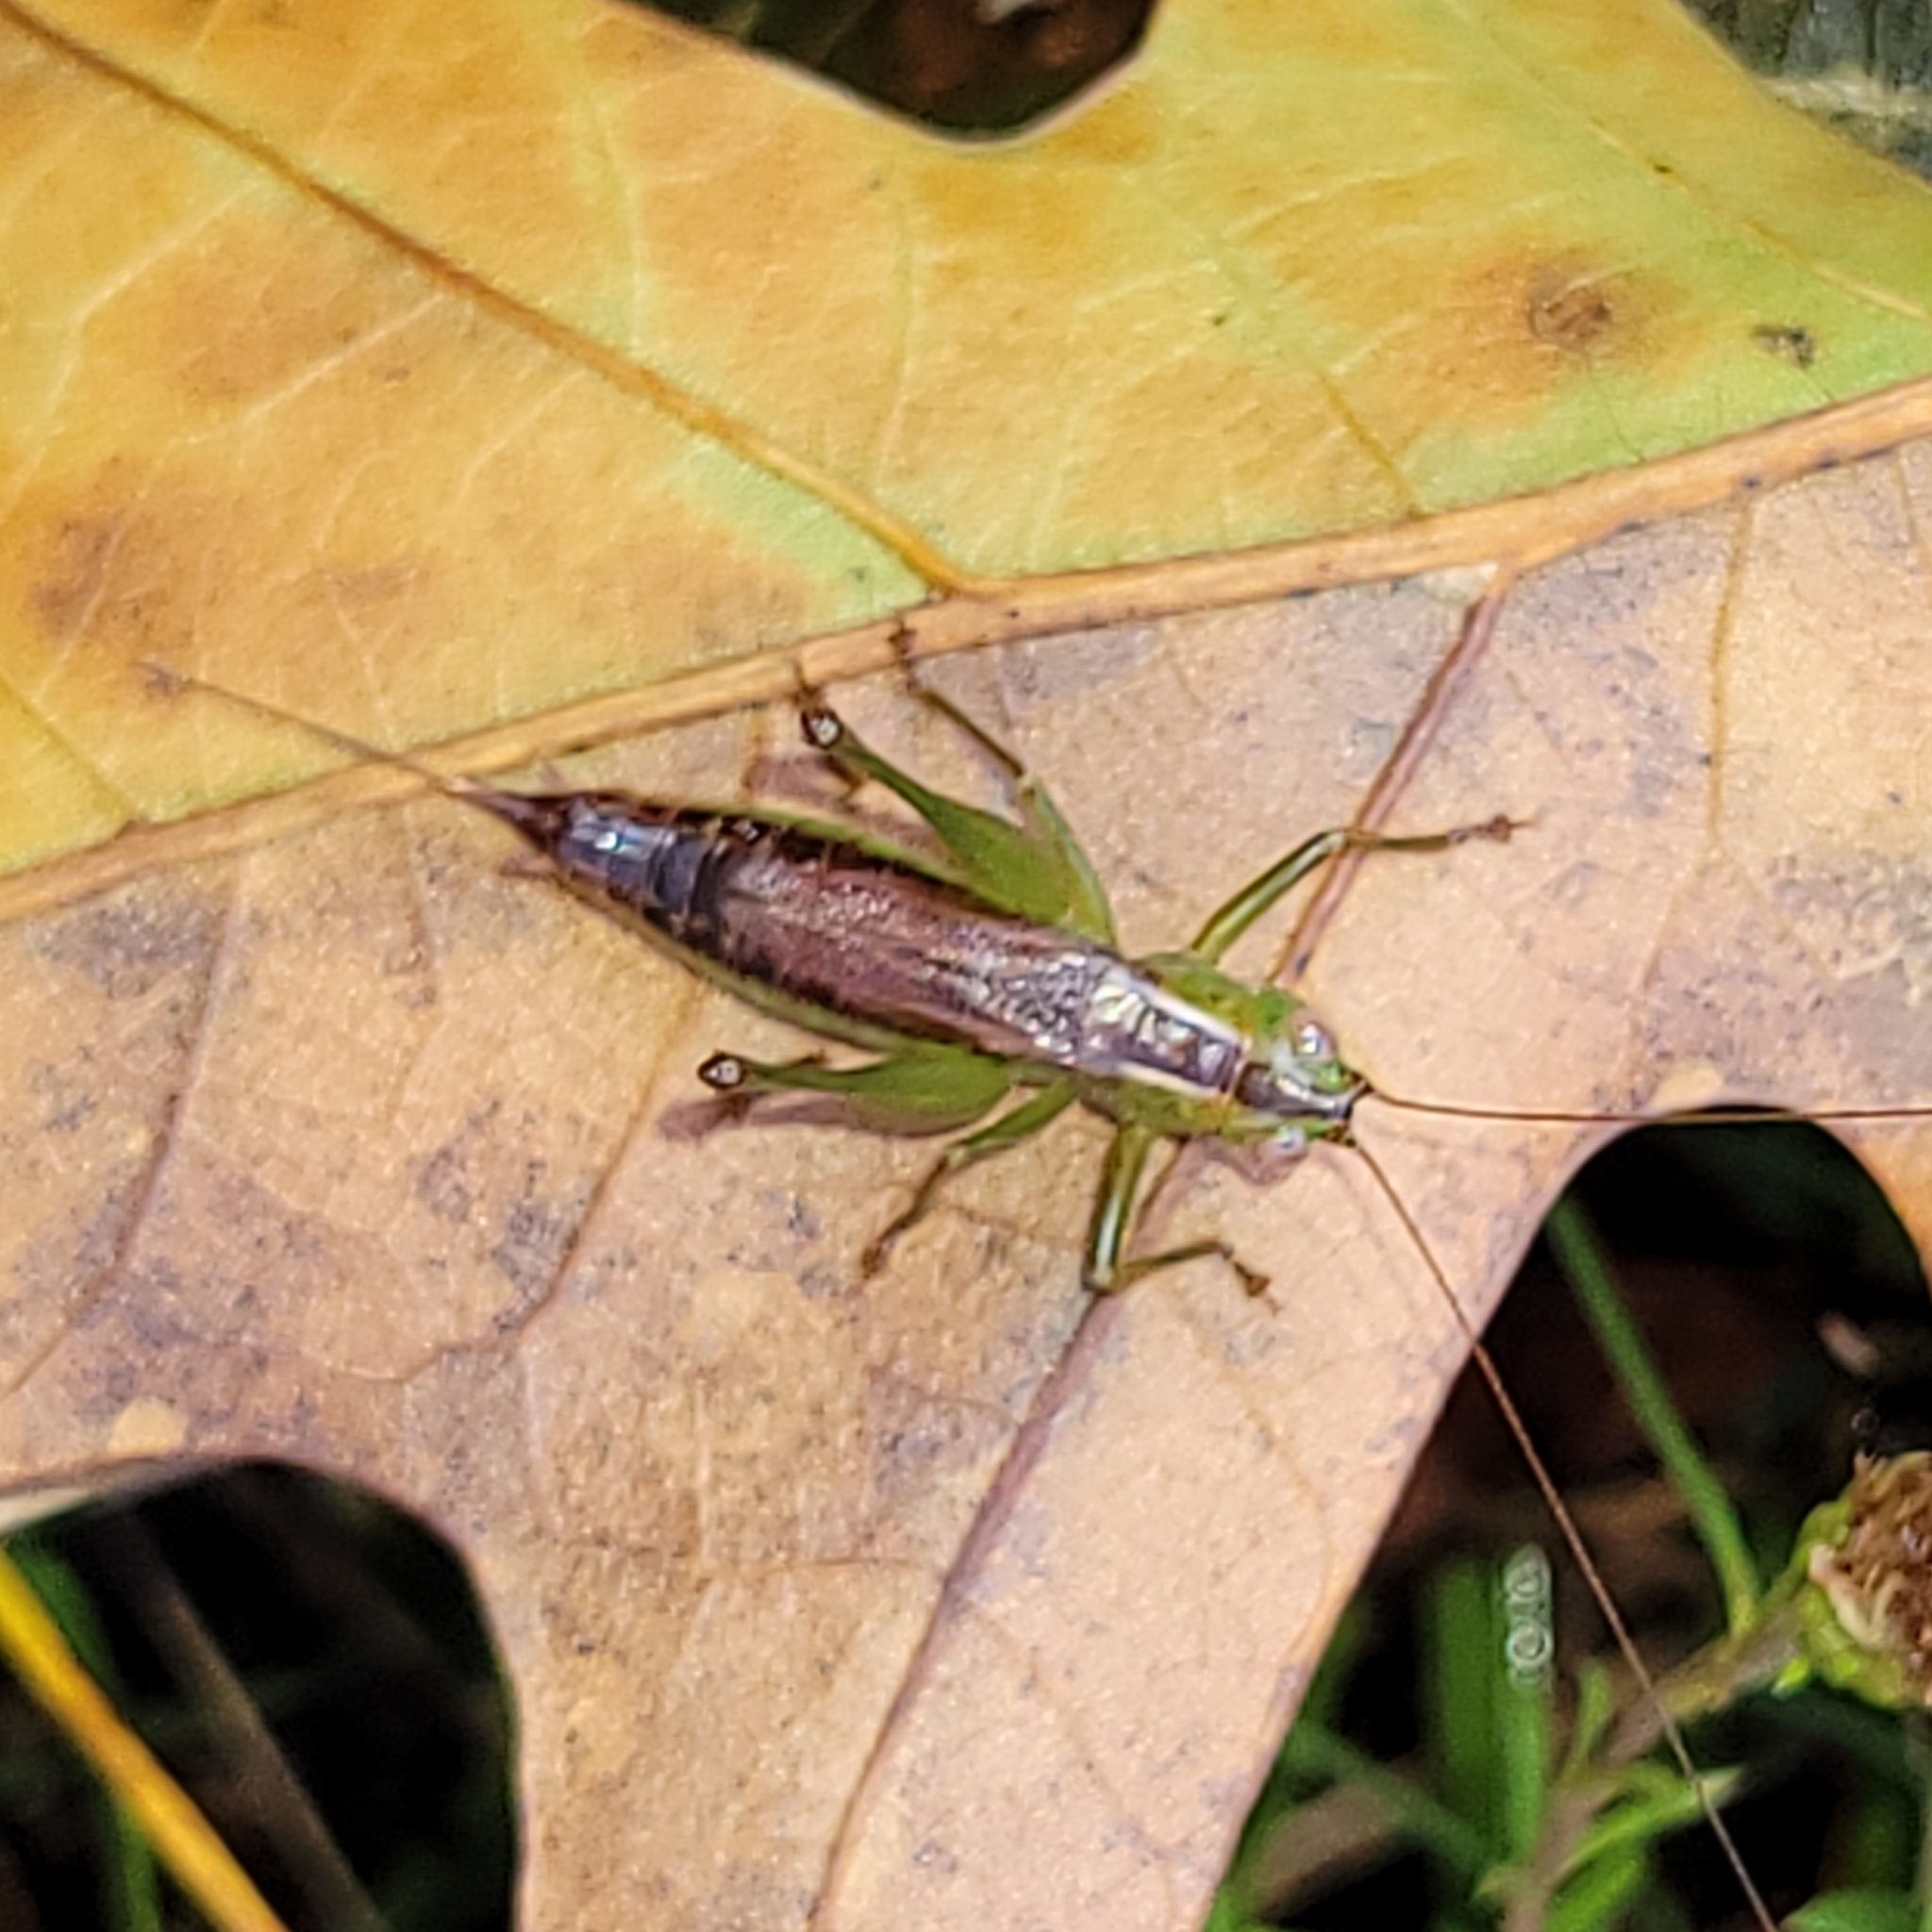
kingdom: Animalia
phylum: Arthropoda
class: Insecta
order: Orthoptera
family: Tettigoniidae
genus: Conocephalus
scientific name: Conocephalus brevipennis
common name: Short-winged meadow katydid
